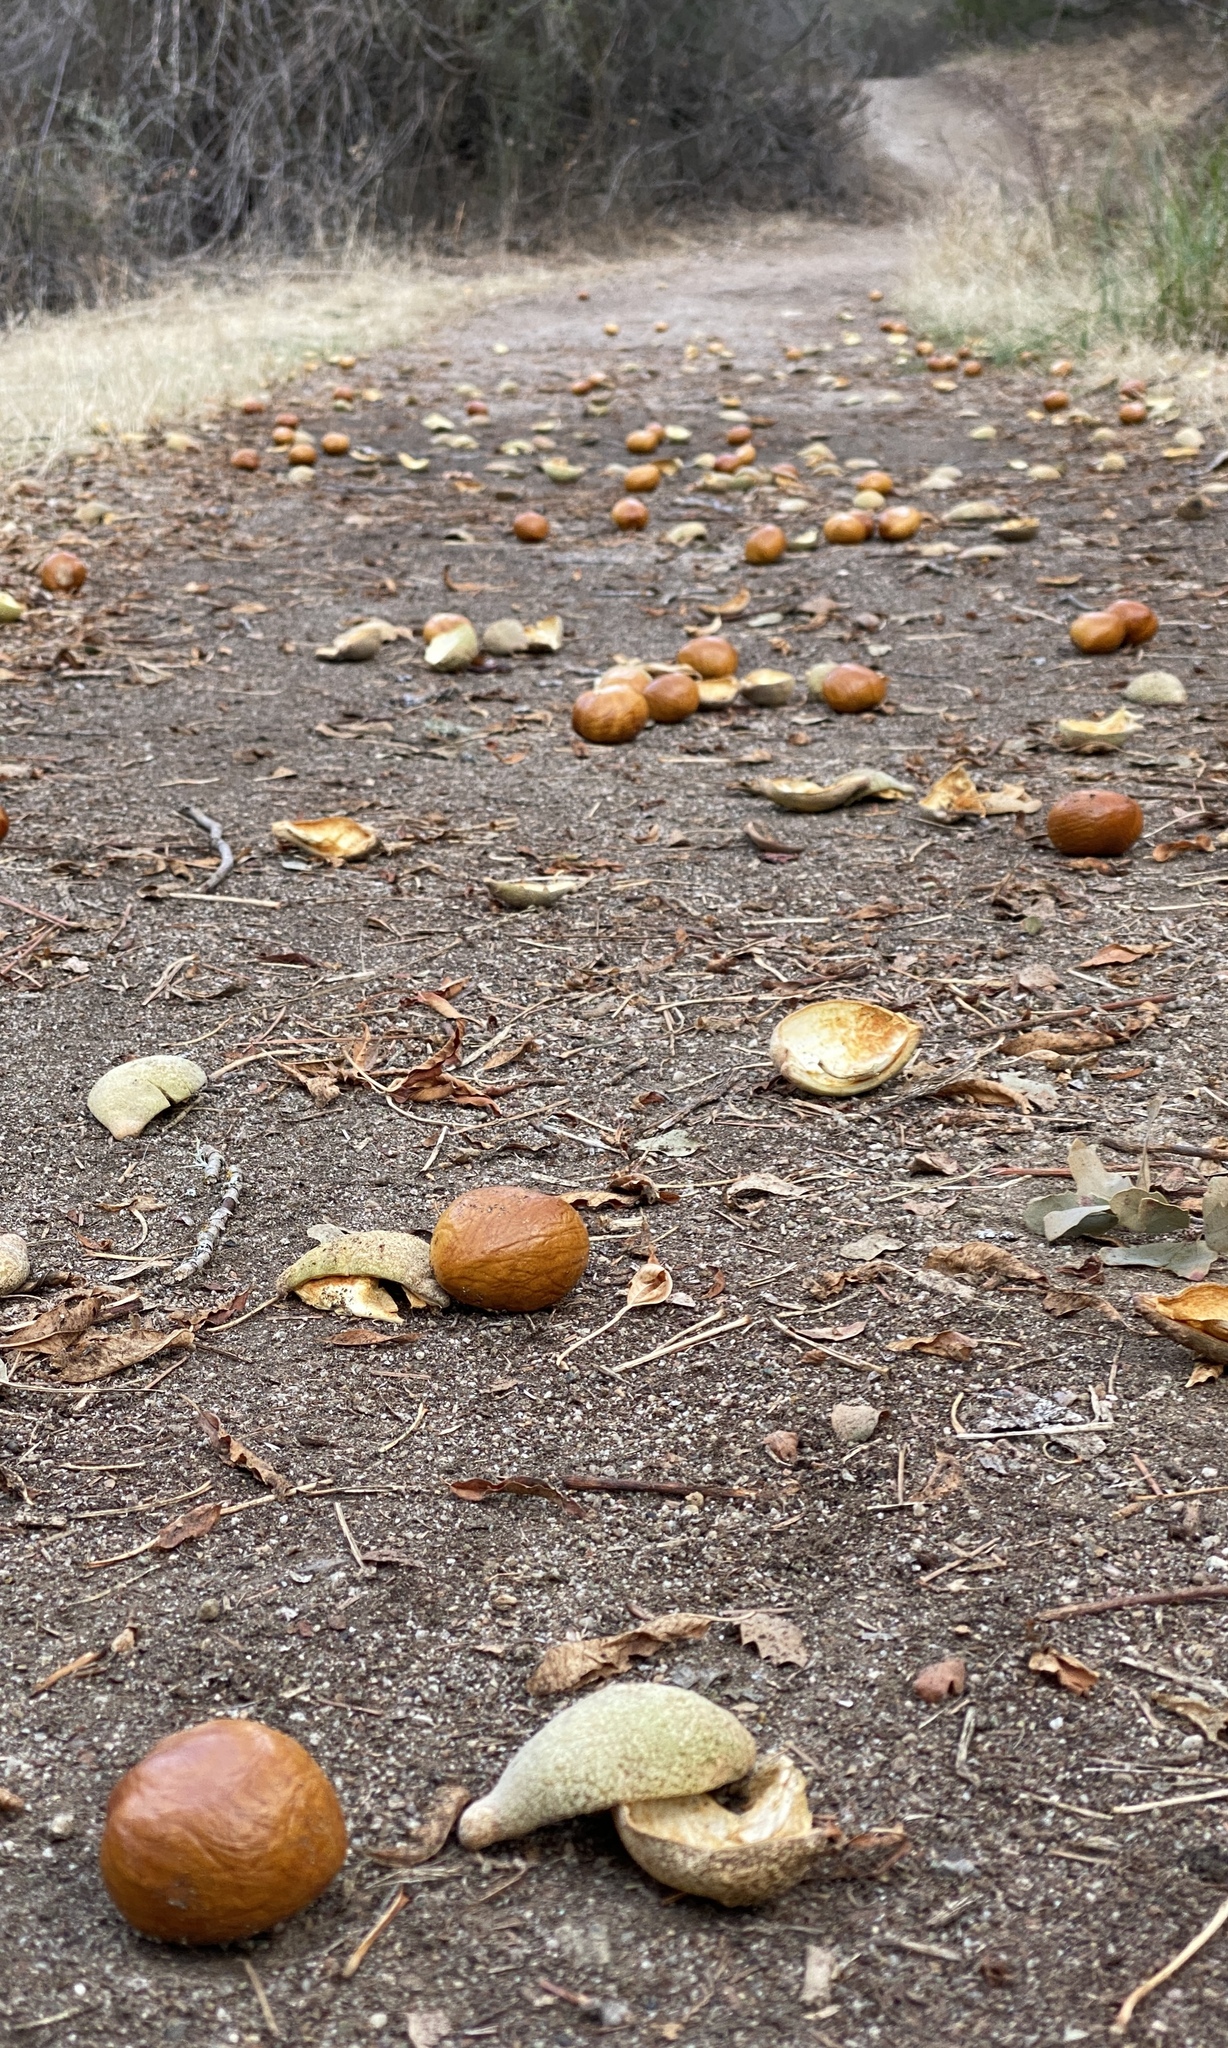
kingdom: Plantae
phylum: Tracheophyta
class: Magnoliopsida
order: Sapindales
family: Sapindaceae
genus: Aesculus
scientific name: Aesculus californica
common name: California buckeye
